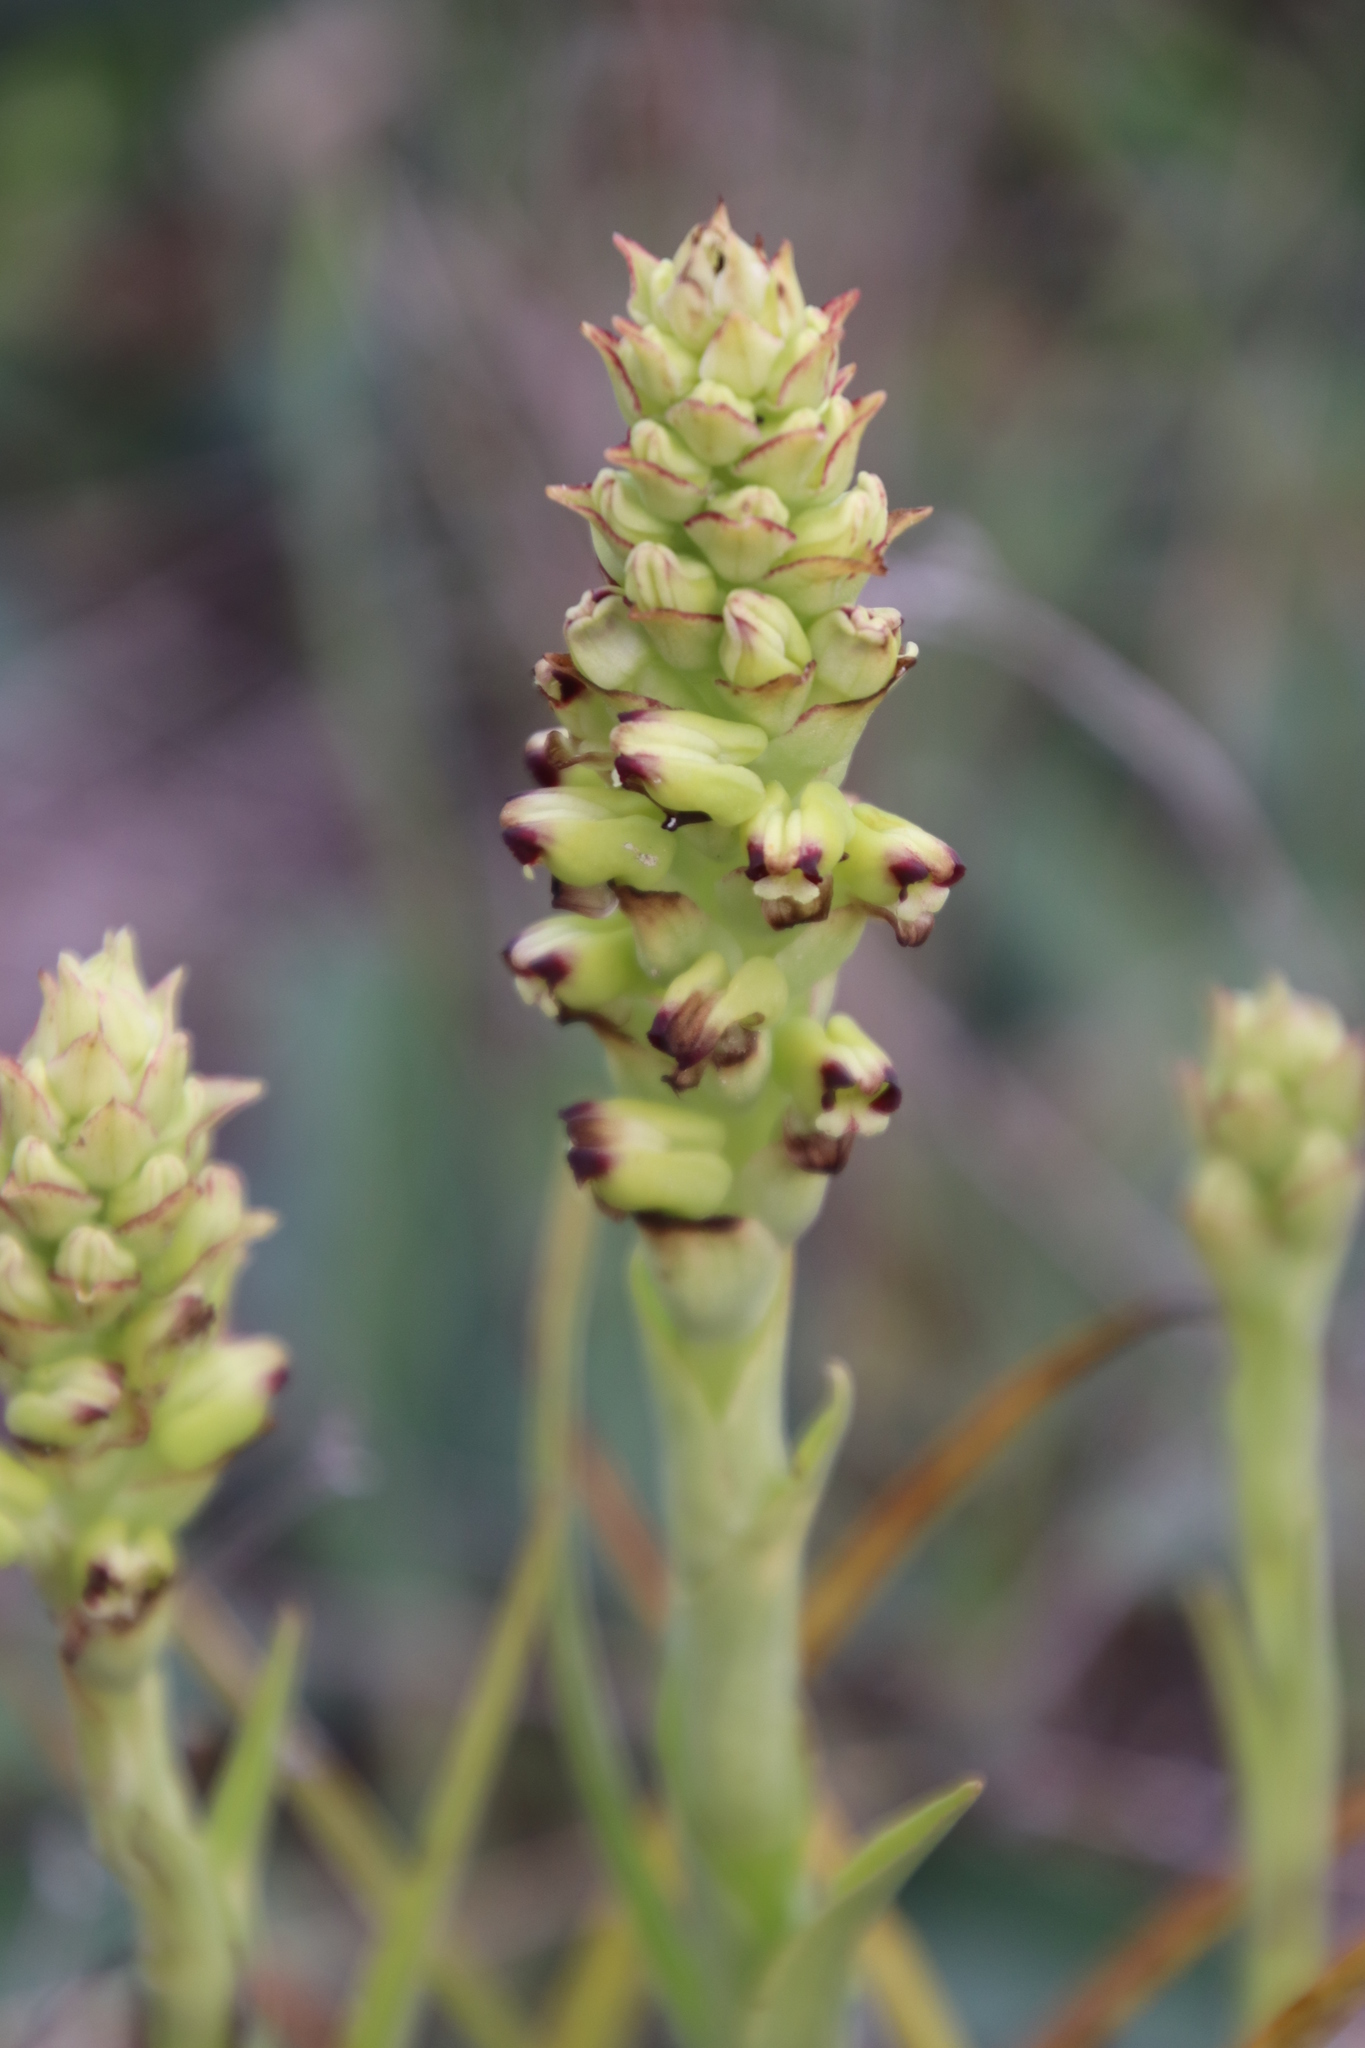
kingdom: Plantae
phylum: Tracheophyta
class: Liliopsida
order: Asparagales
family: Orchidaceae
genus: Corycium
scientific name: Corycium orobanchoides
